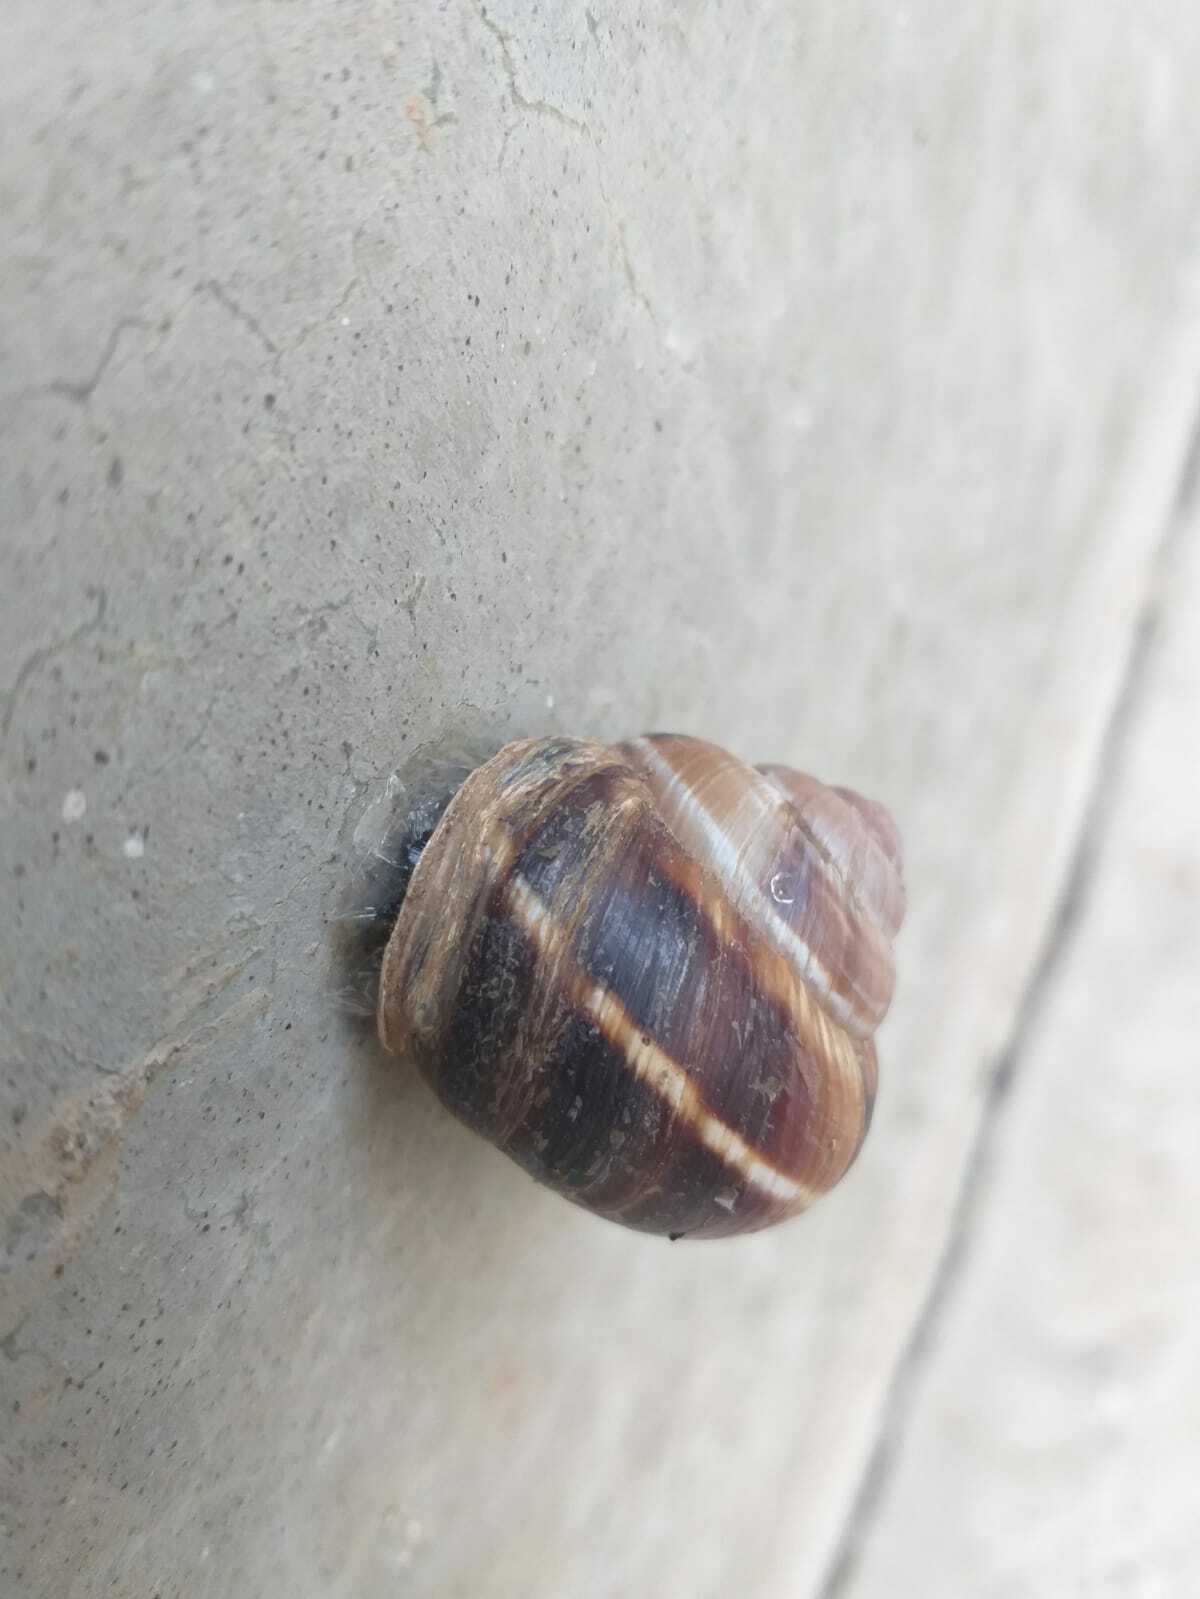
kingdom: Animalia
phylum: Mollusca
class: Gastropoda
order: Stylommatophora
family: Helicidae
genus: Helix
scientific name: Helix lucorum
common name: Turkish snail
